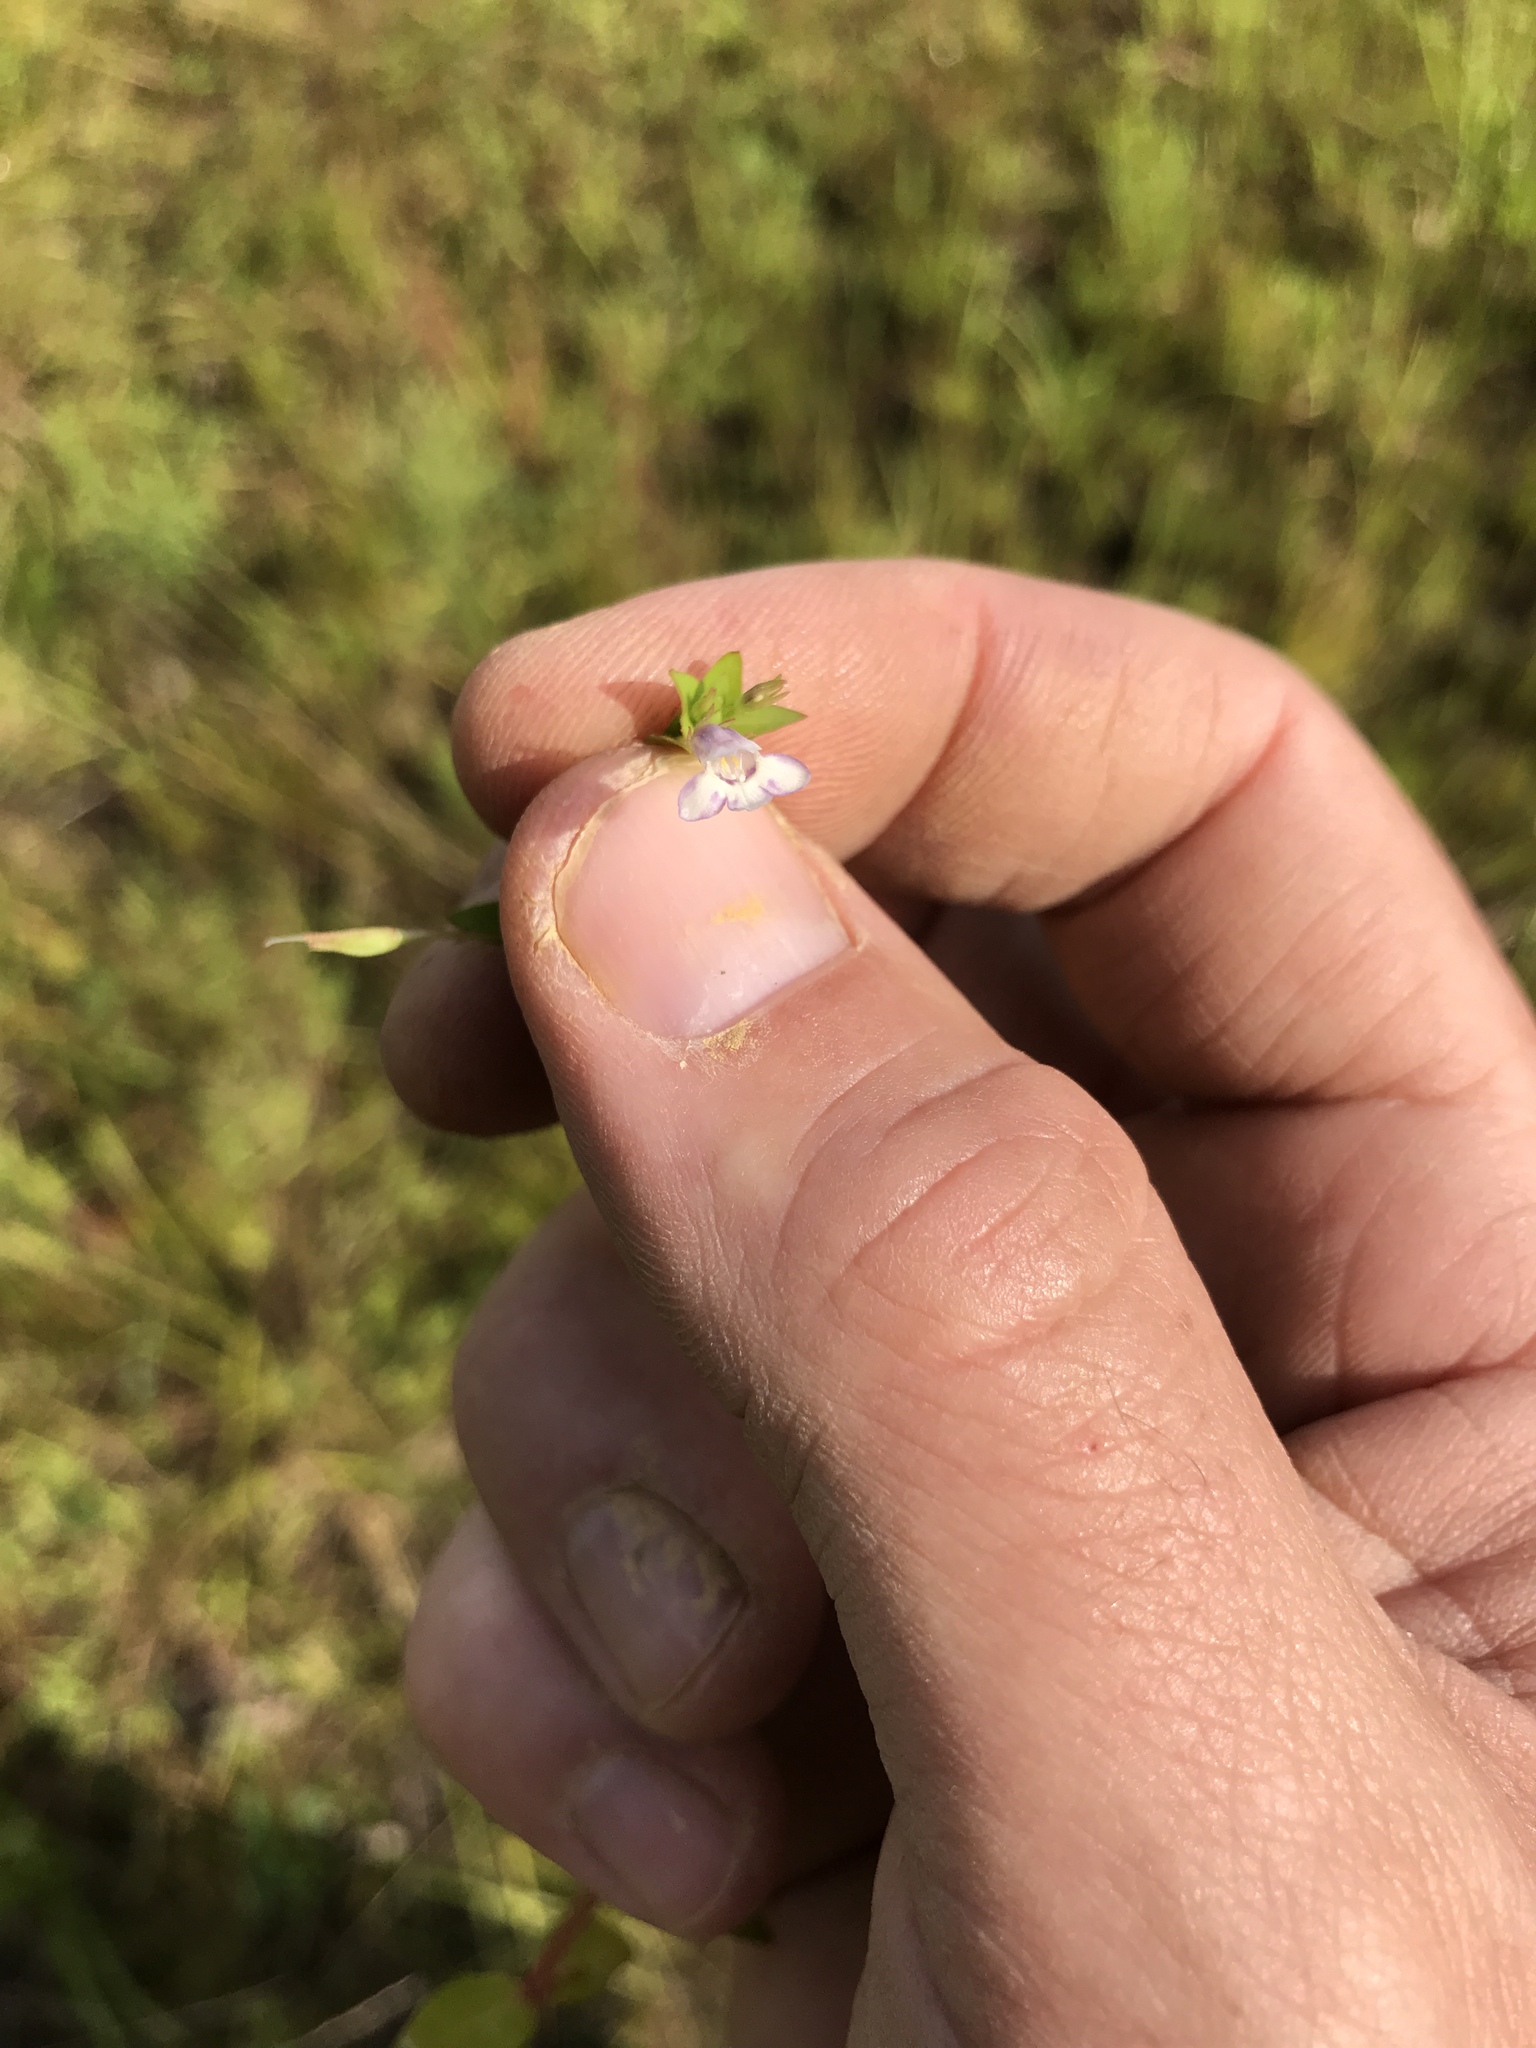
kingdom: Plantae
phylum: Tracheophyta
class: Magnoliopsida
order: Lamiales
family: Linderniaceae
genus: Lindernia
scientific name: Lindernia dubia
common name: Annual false pimpernel
